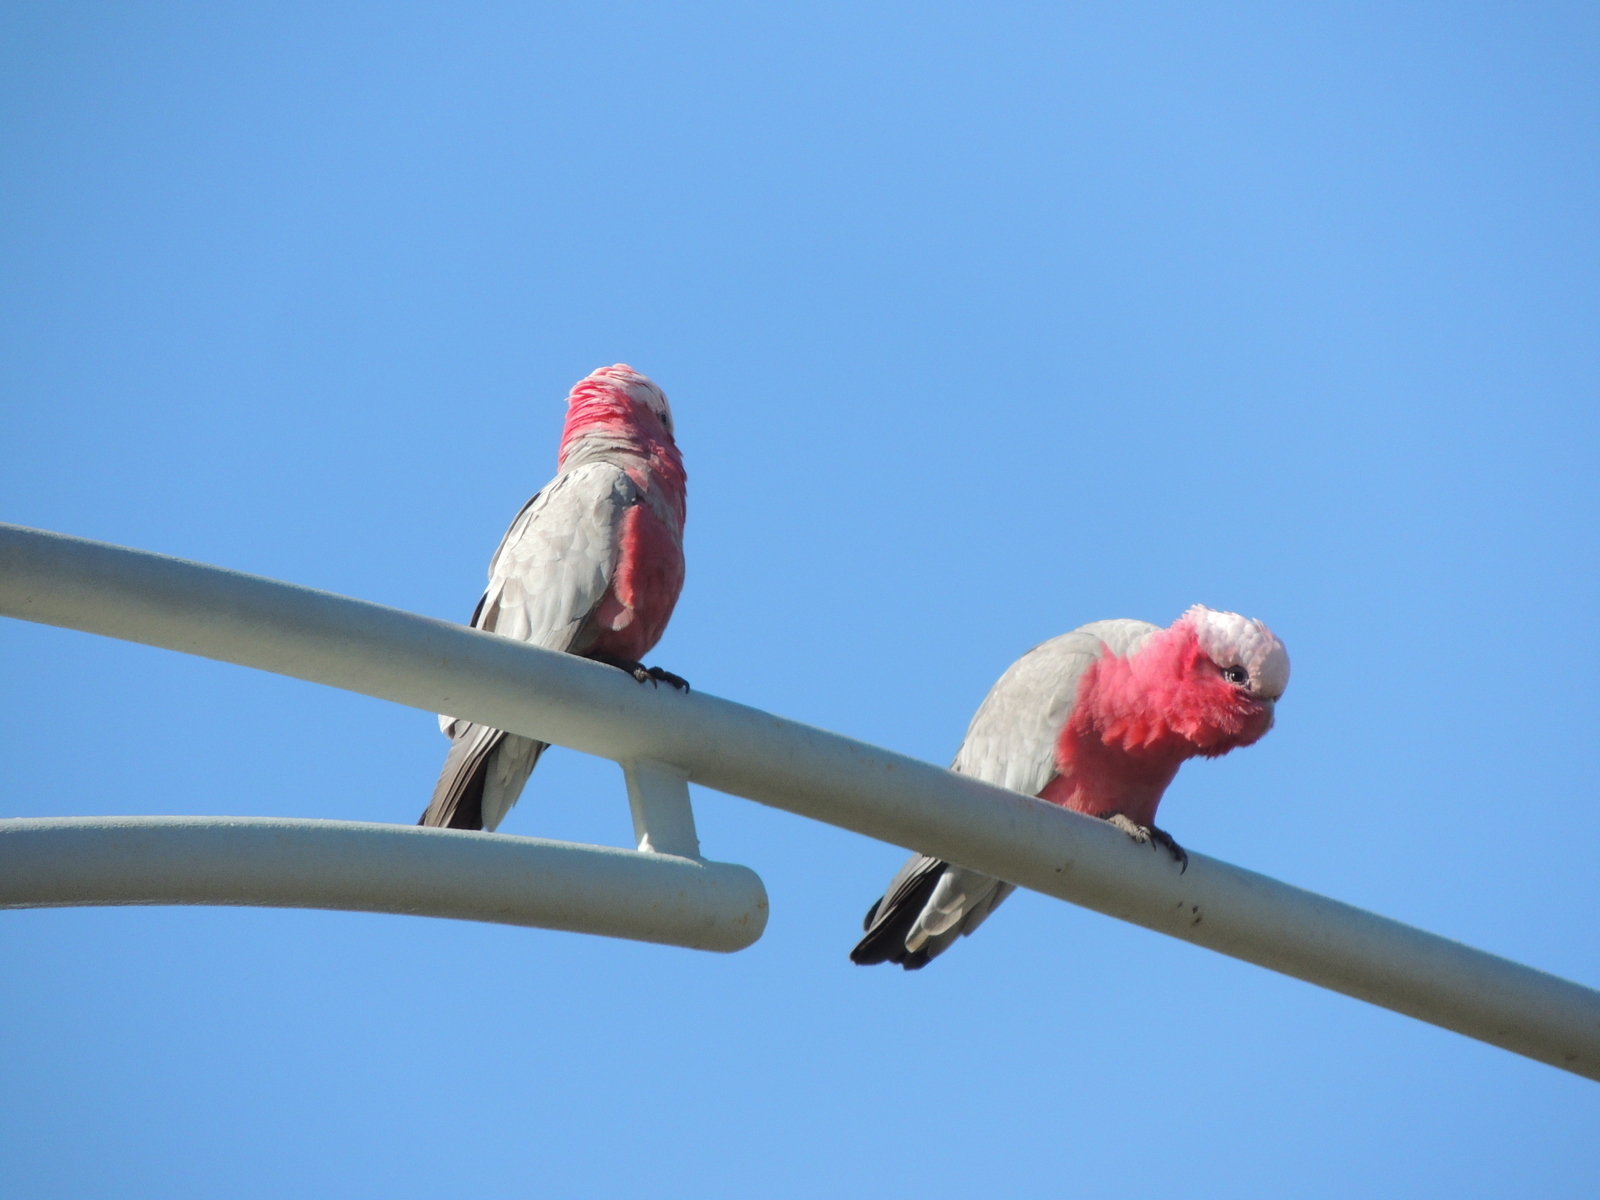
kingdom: Animalia
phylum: Chordata
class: Aves
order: Psittaciformes
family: Psittacidae
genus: Eolophus
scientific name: Eolophus roseicapilla
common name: Galah
